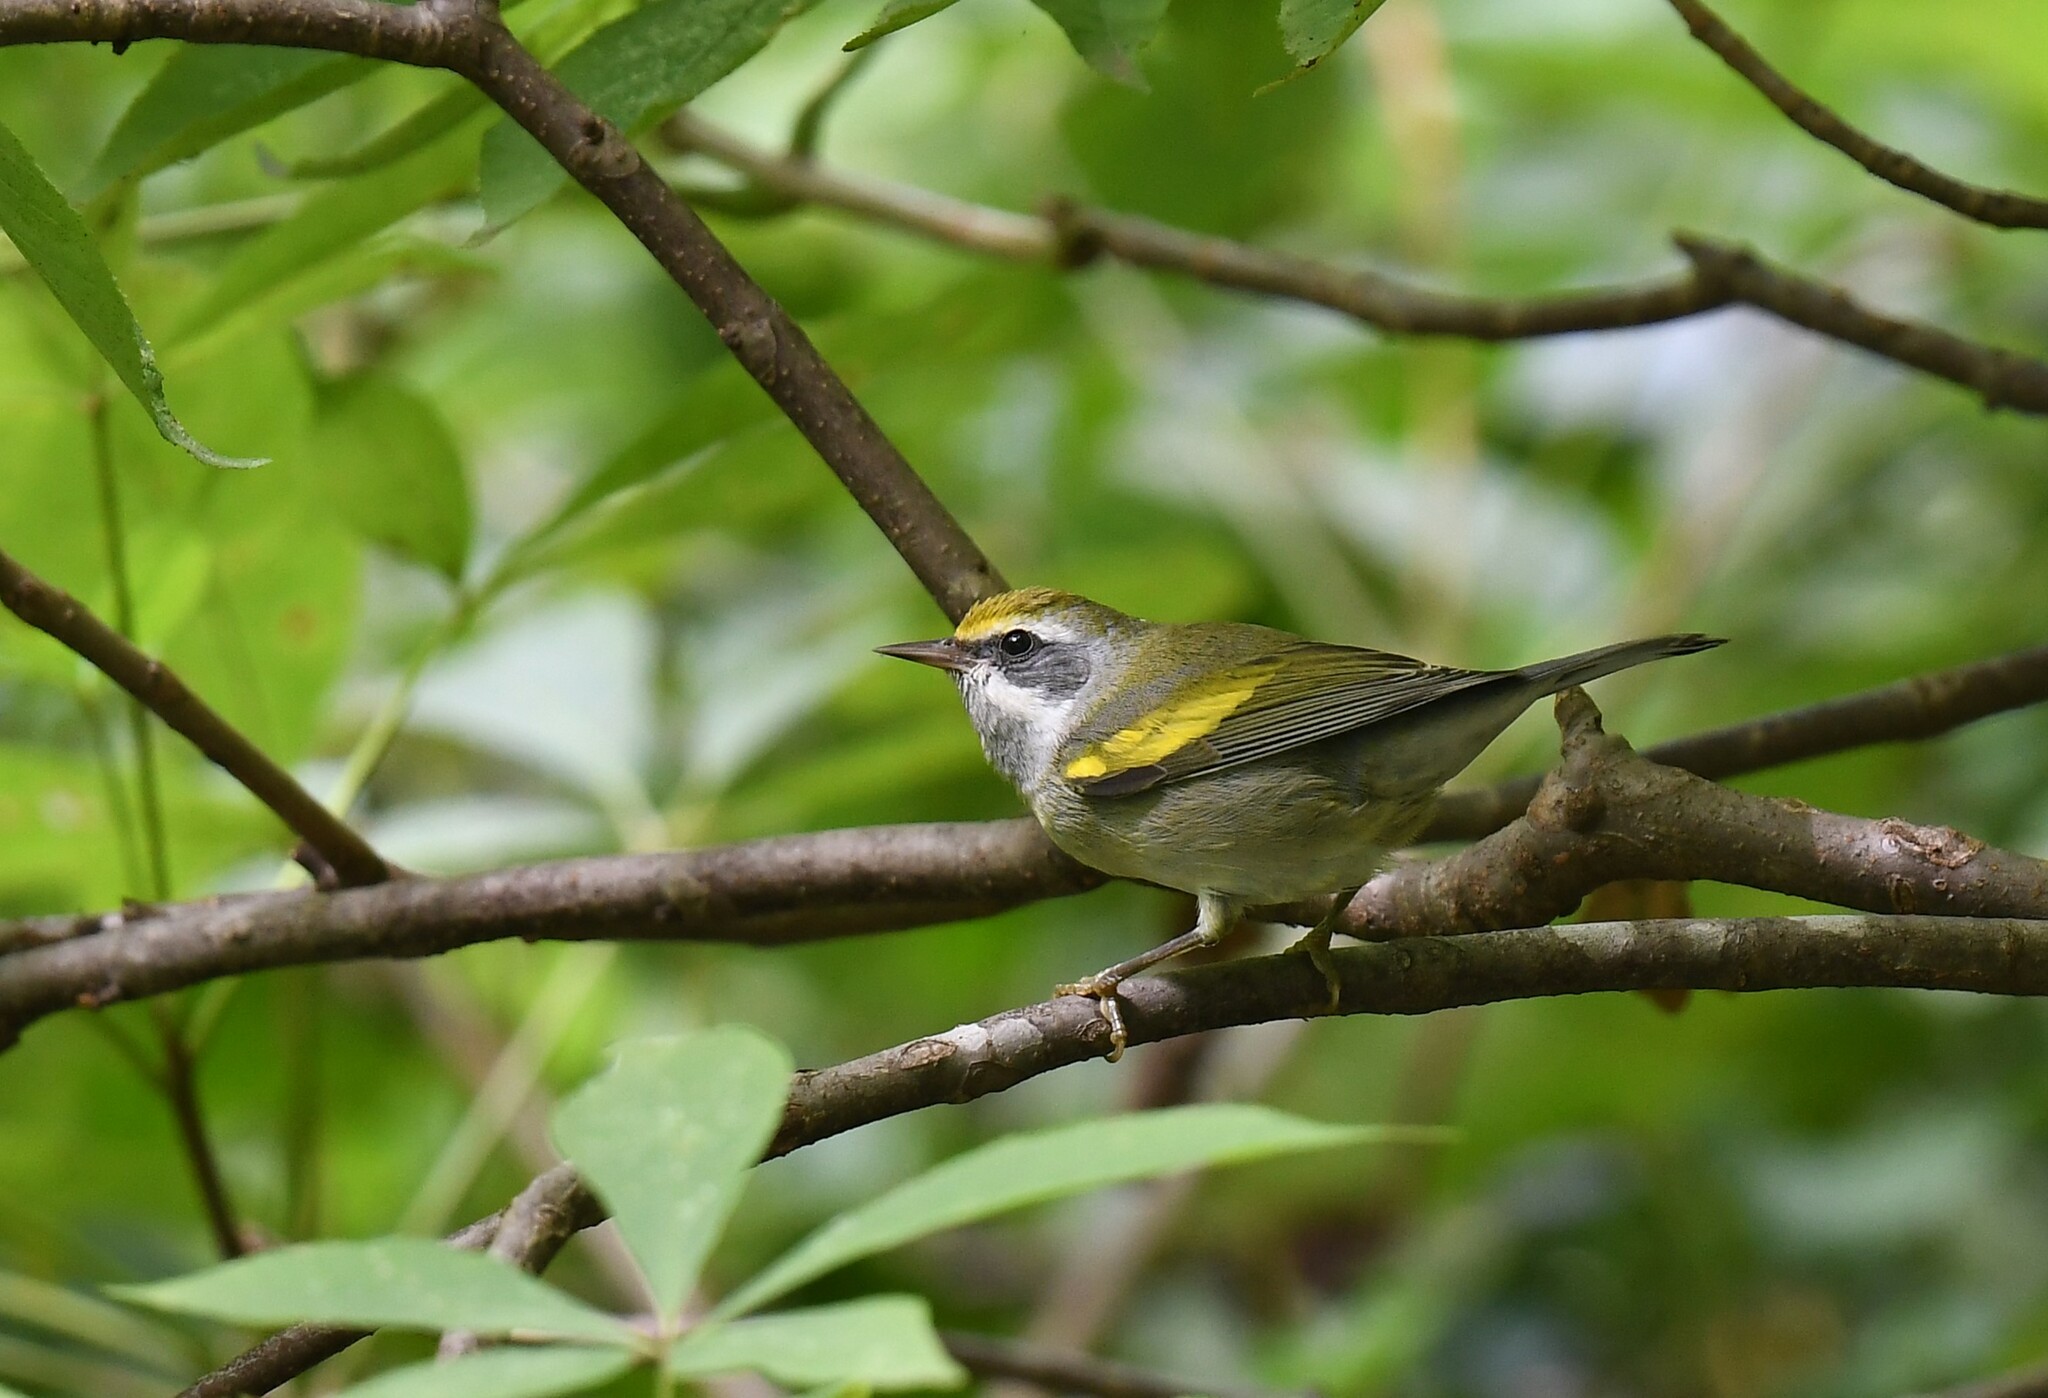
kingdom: Animalia
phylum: Chordata
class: Aves
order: Passeriformes
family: Parulidae
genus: Vermivora
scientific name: Vermivora chrysoptera
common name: Golden-winged warbler
